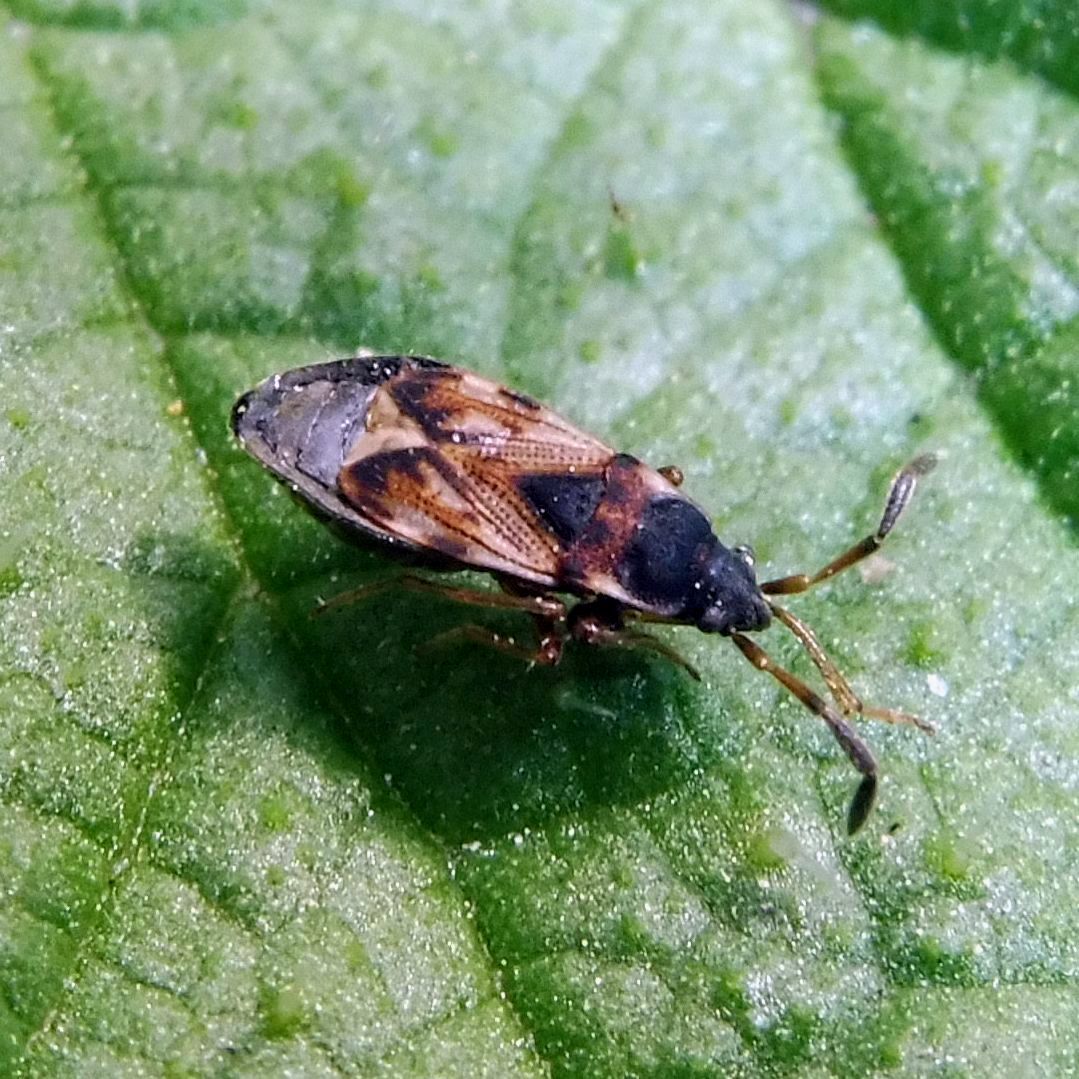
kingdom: Animalia
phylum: Arthropoda
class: Insecta
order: Hemiptera
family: Rhyparochromidae
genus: Scolopostethus
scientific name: Scolopostethus thomsoni
